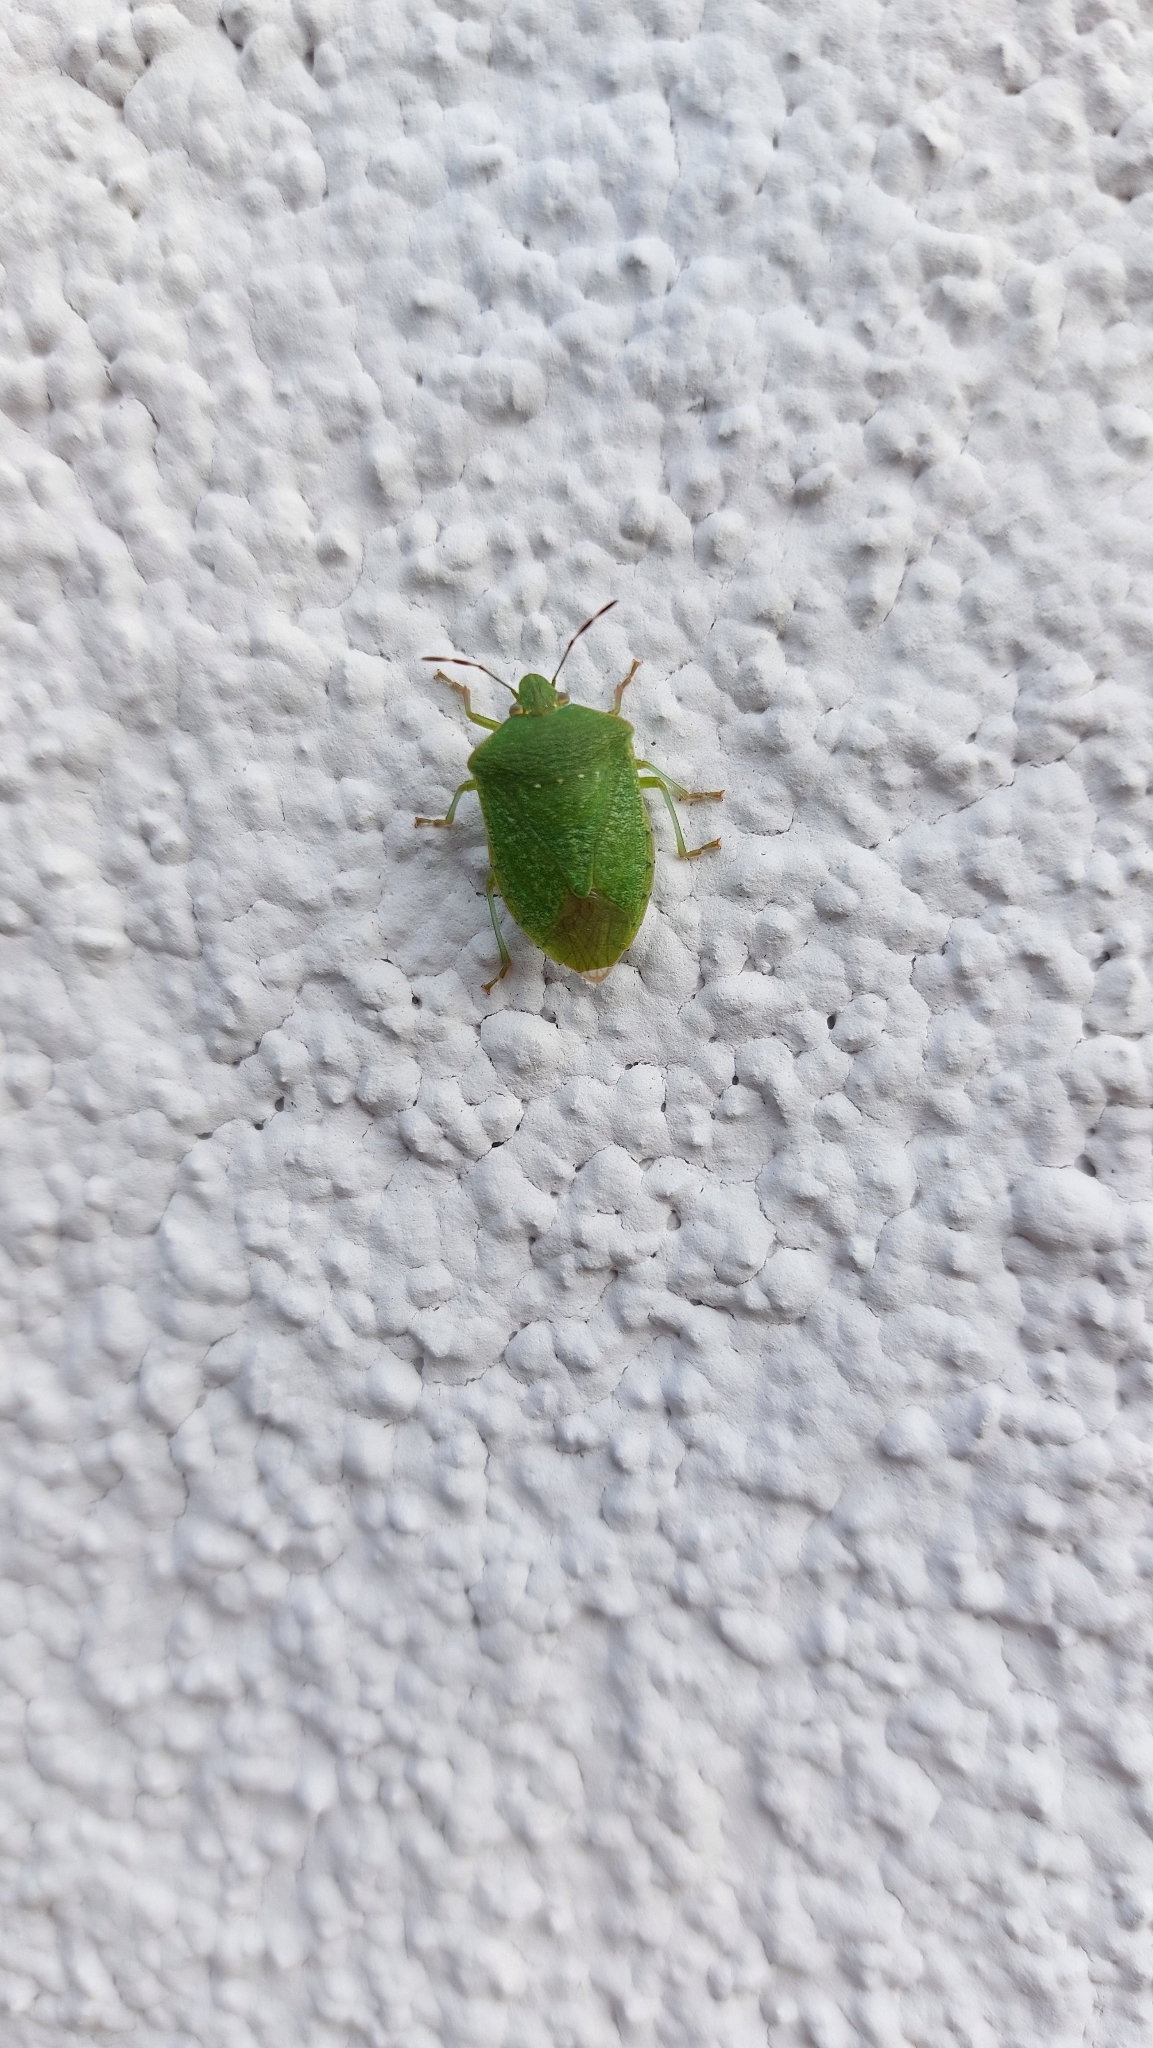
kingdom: Animalia
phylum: Arthropoda
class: Insecta
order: Hemiptera
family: Pentatomidae
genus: Nezara
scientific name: Nezara viridula
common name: Southern green stink bug
